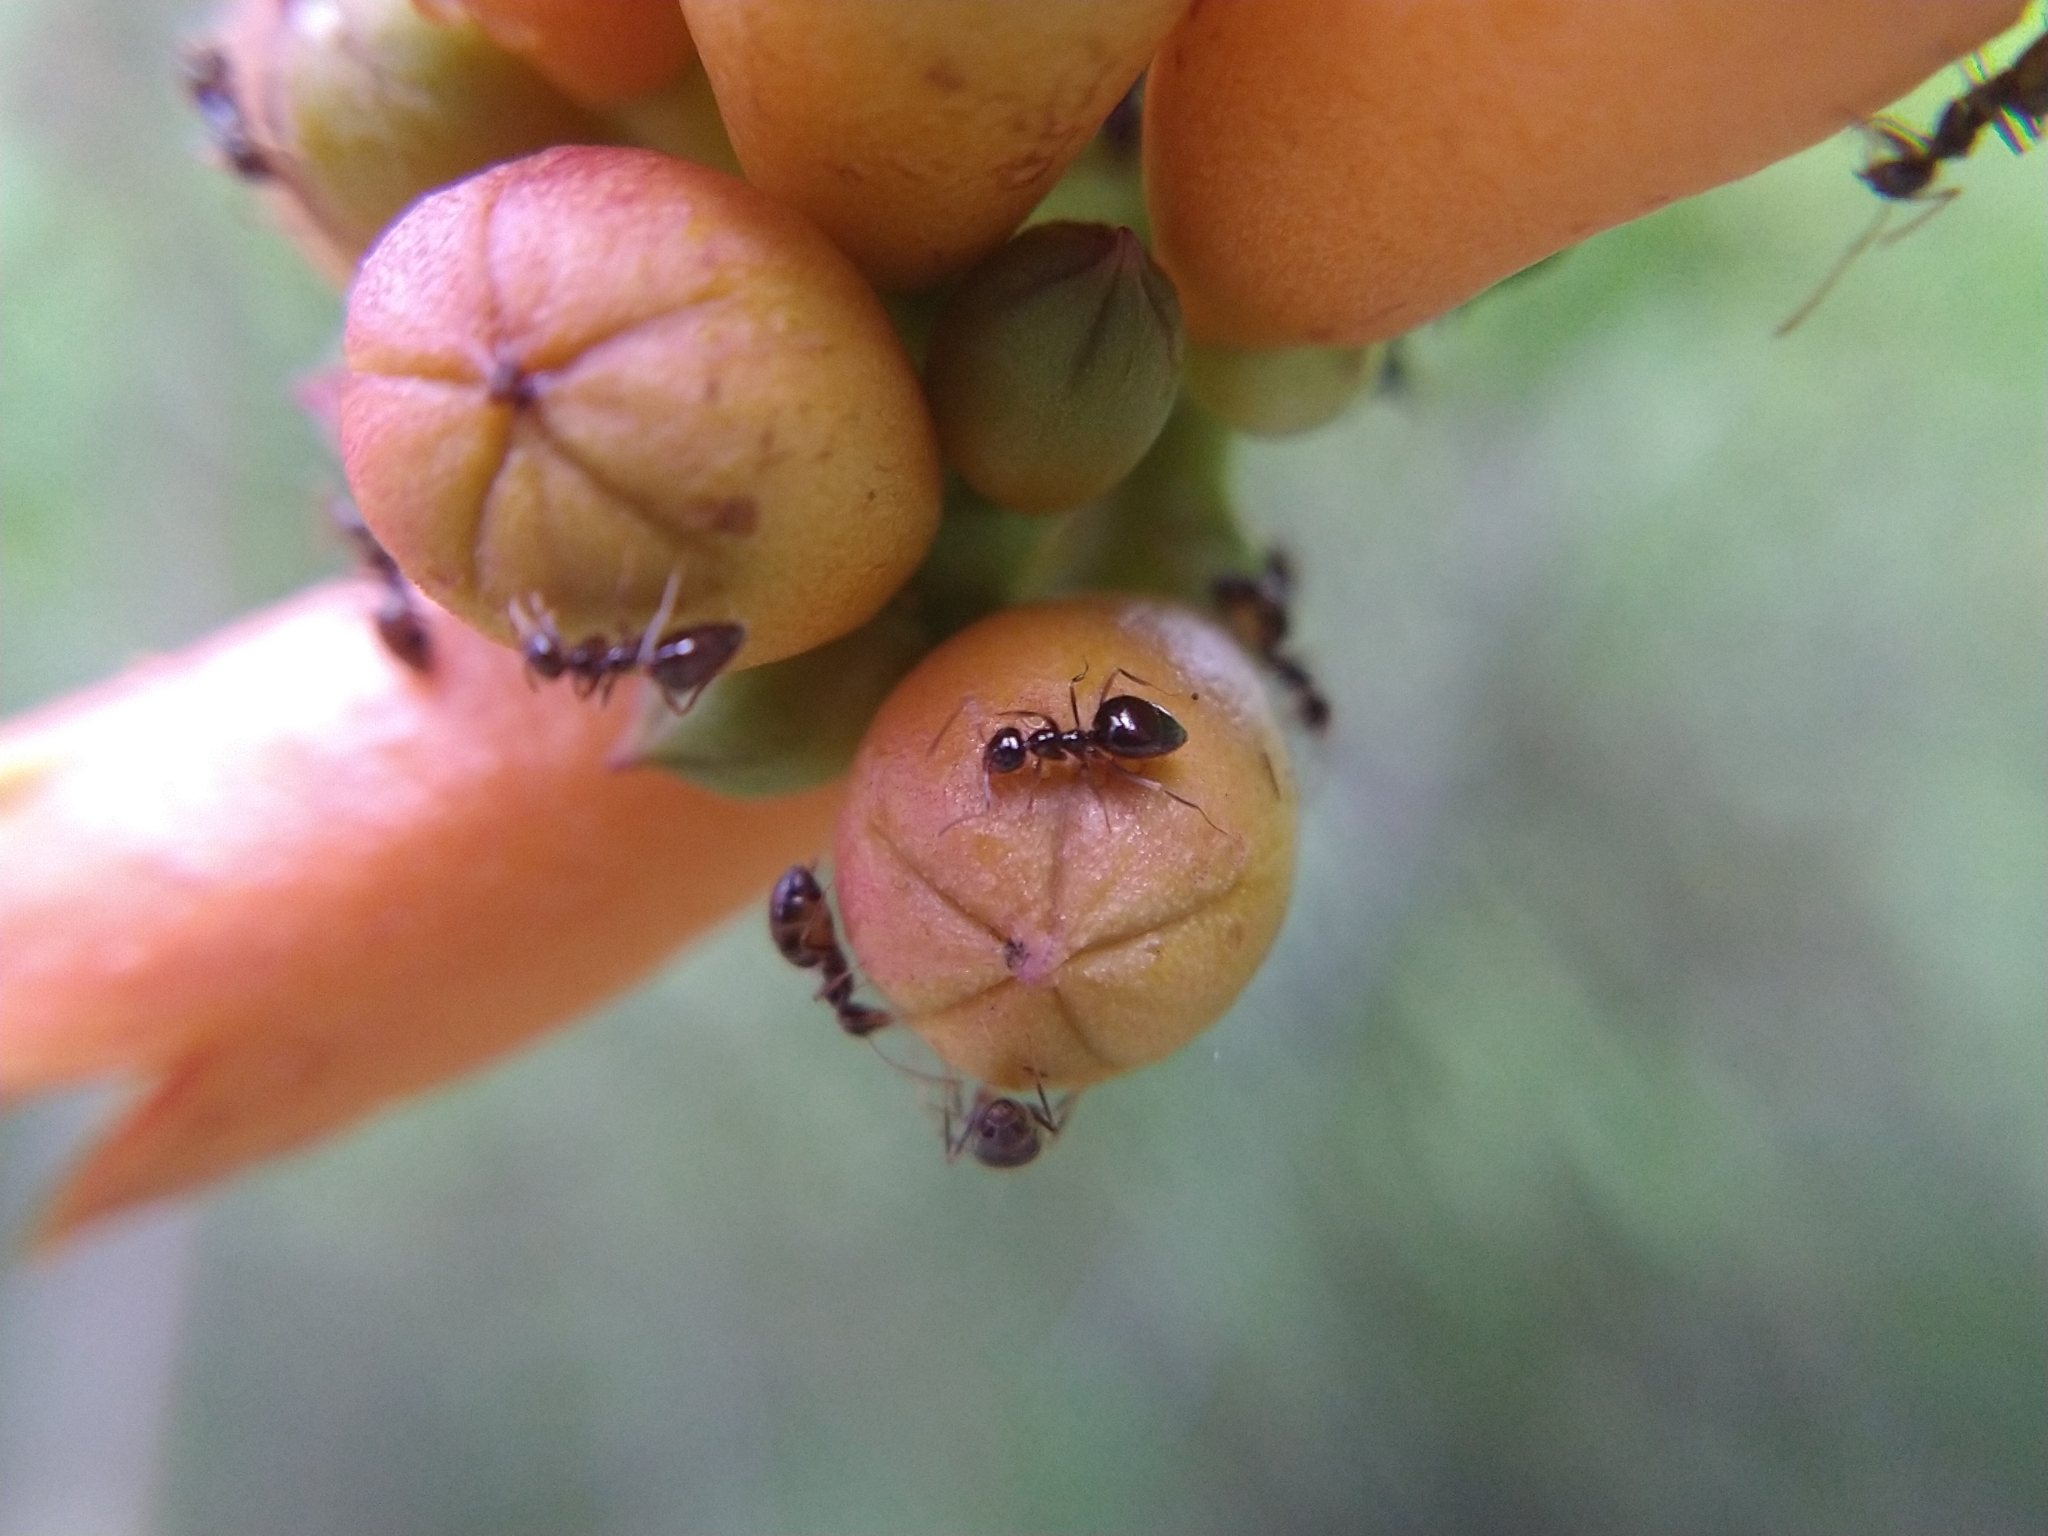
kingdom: Animalia
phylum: Arthropoda
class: Insecta
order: Hymenoptera
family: Formicidae
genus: Prenolepis
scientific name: Prenolepis imparis
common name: Small honey ant
